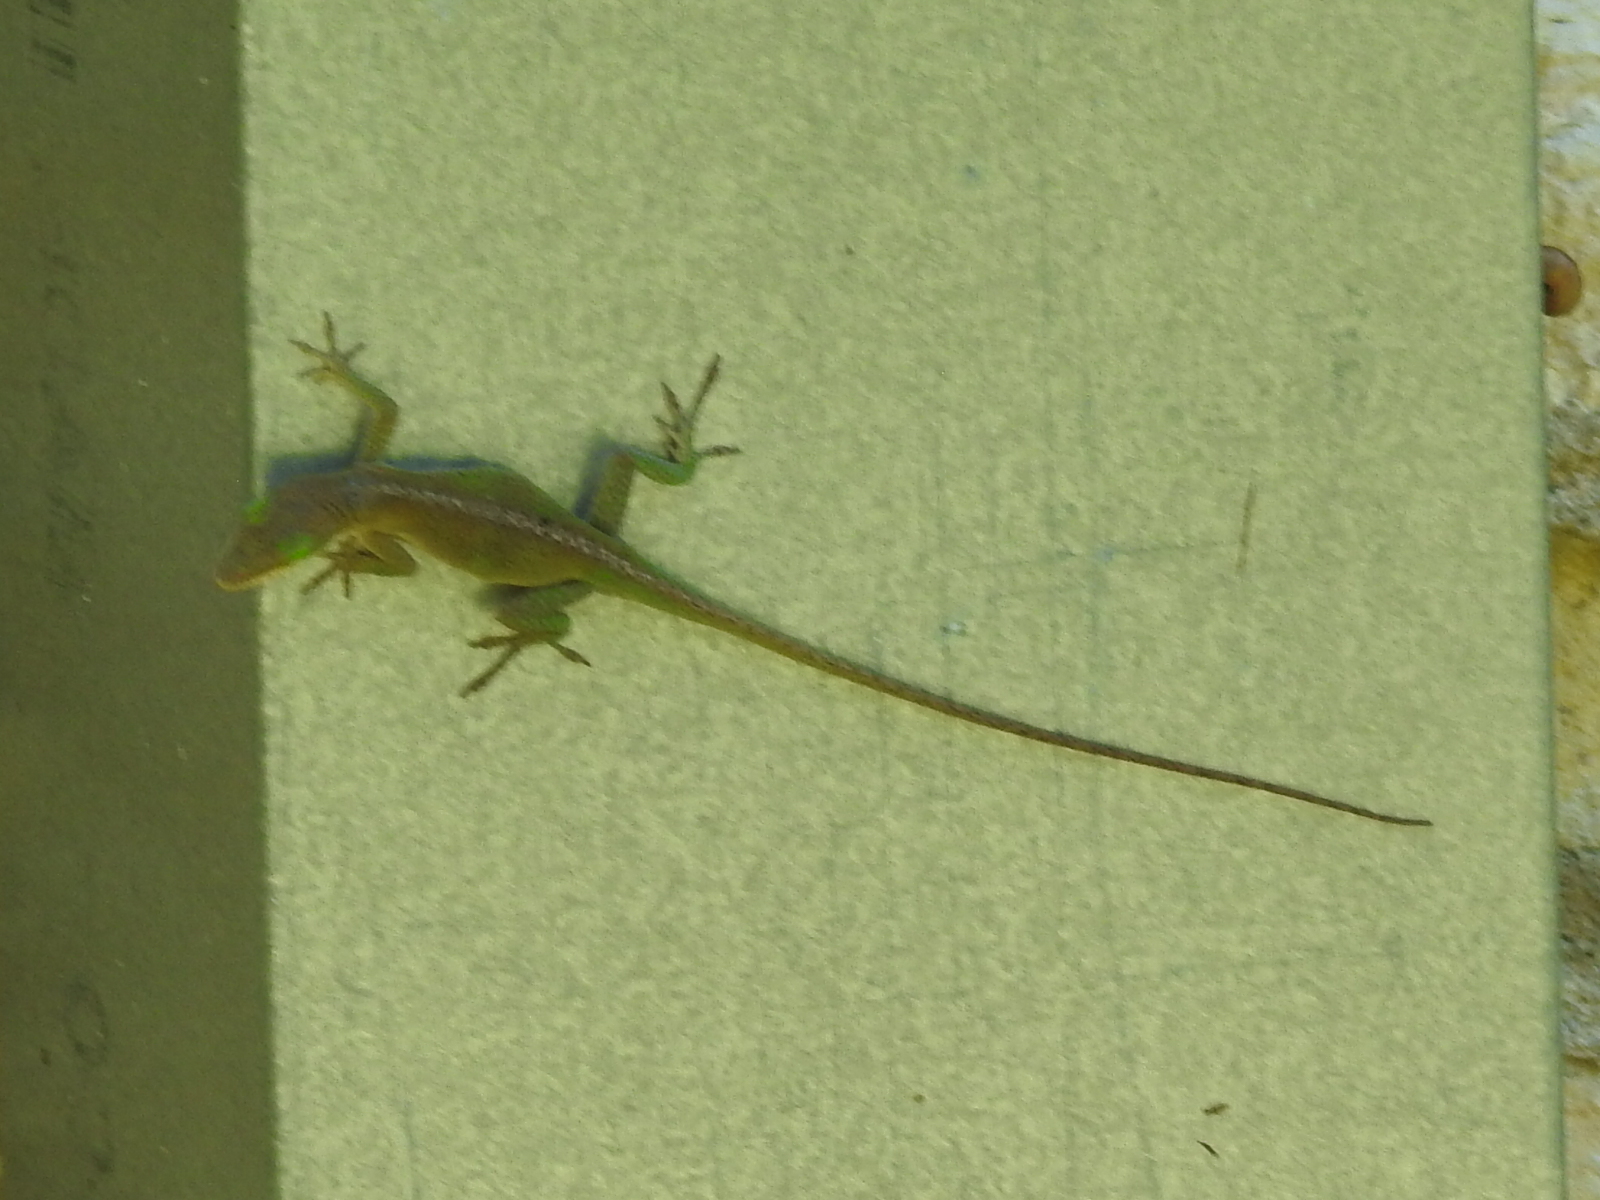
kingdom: Animalia
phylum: Chordata
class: Squamata
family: Dactyloidae
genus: Anolis
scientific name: Anolis carolinensis
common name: Green anole
